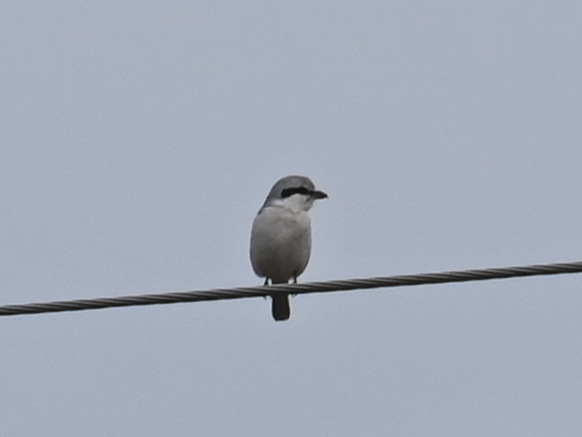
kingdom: Animalia
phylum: Chordata
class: Aves
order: Passeriformes
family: Laniidae
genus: Lanius
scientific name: Lanius excubitor
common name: Great grey shrike
